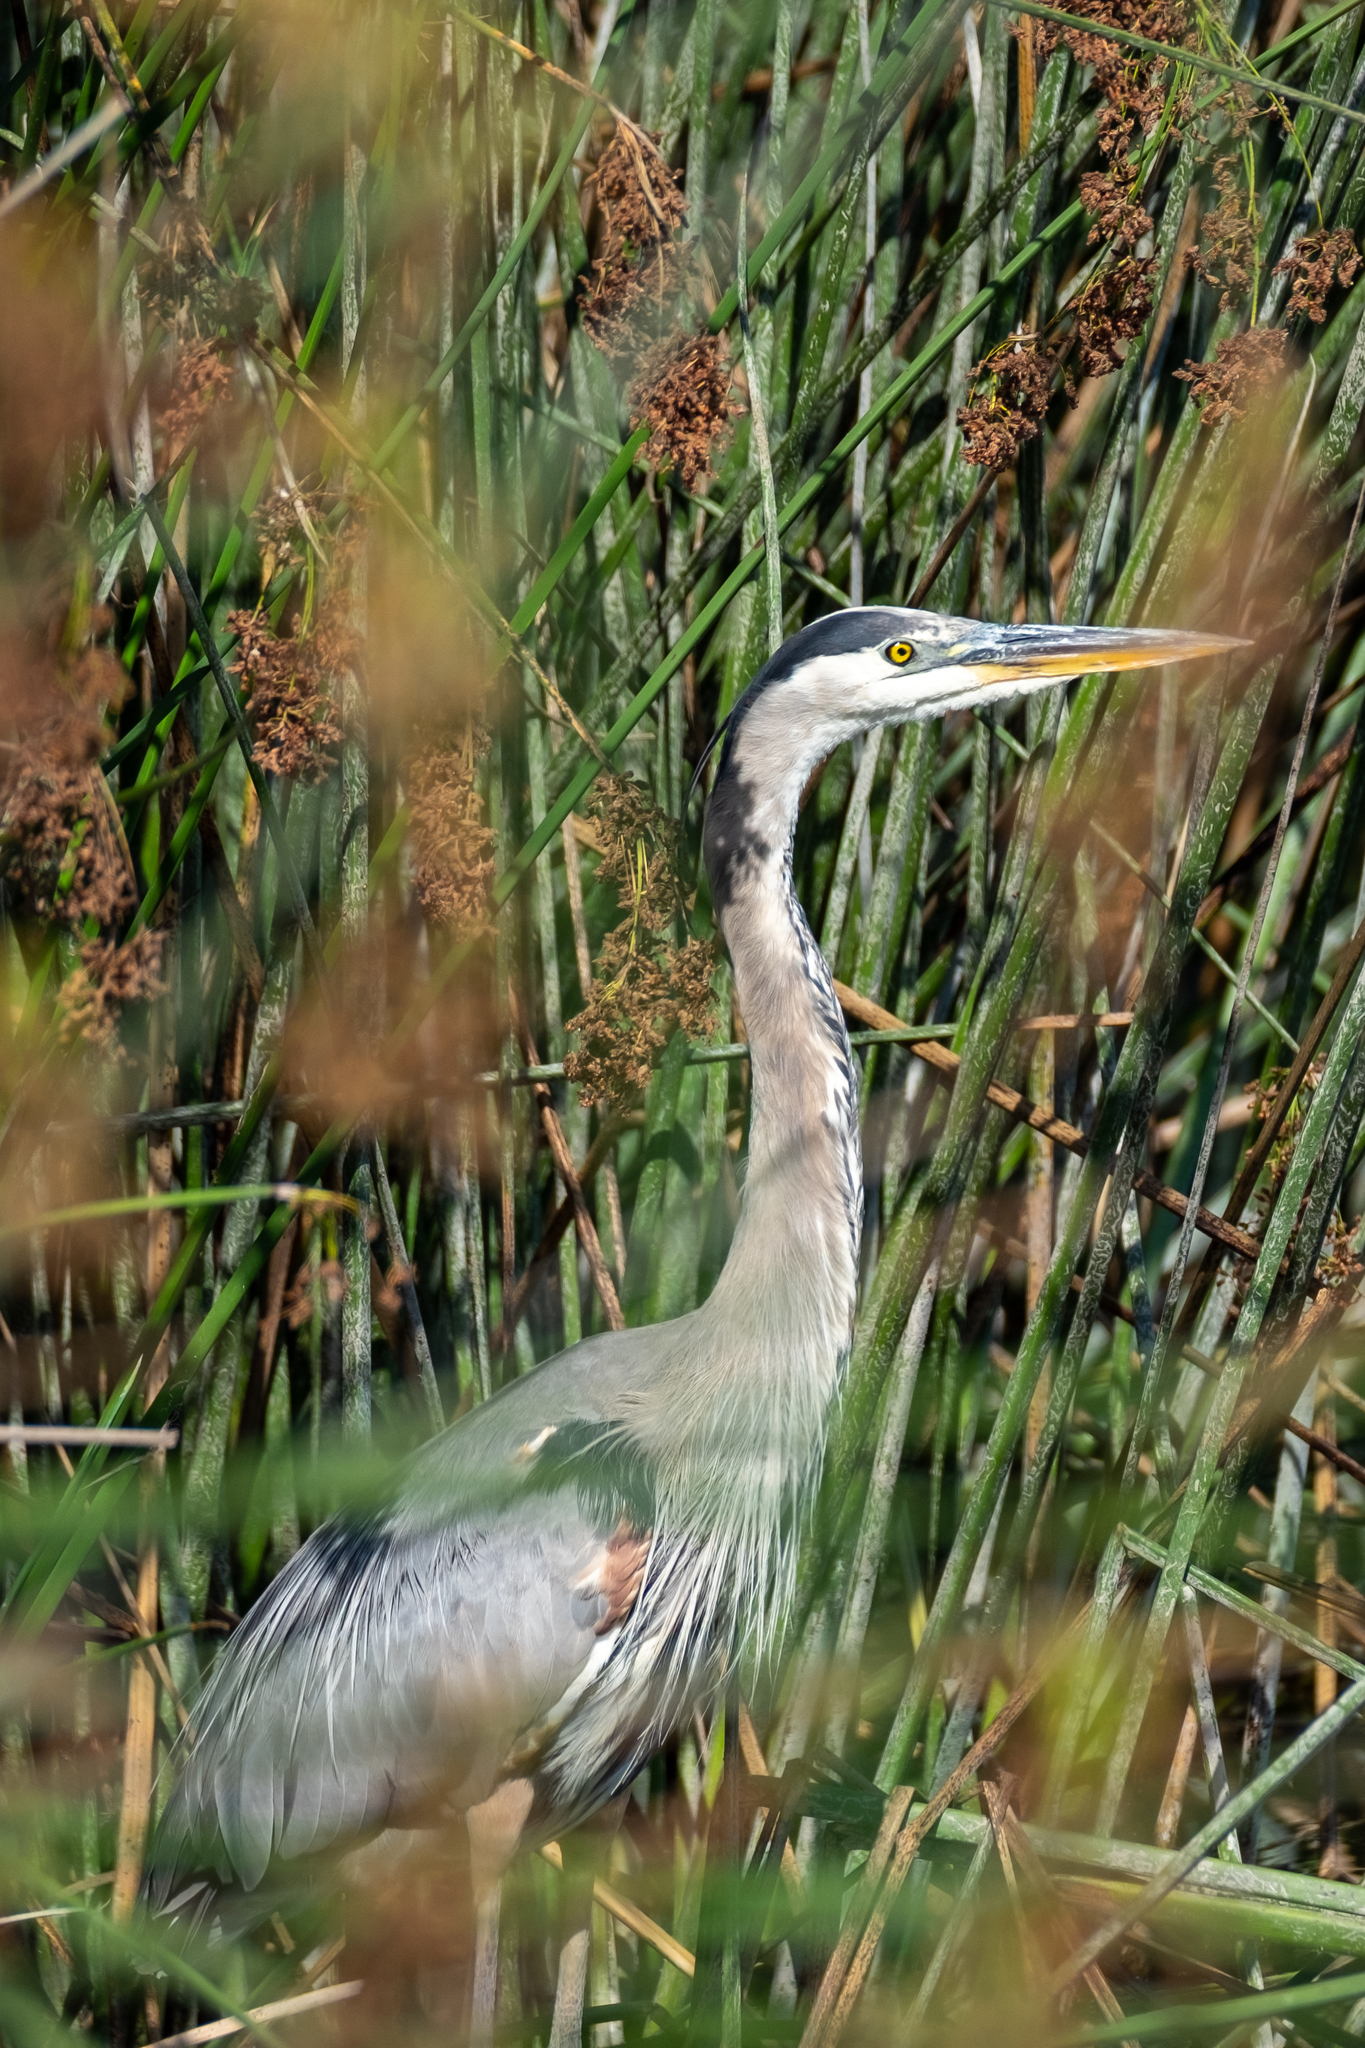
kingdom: Animalia
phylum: Chordata
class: Aves
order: Pelecaniformes
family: Ardeidae
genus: Ardea
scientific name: Ardea herodias
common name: Great blue heron
